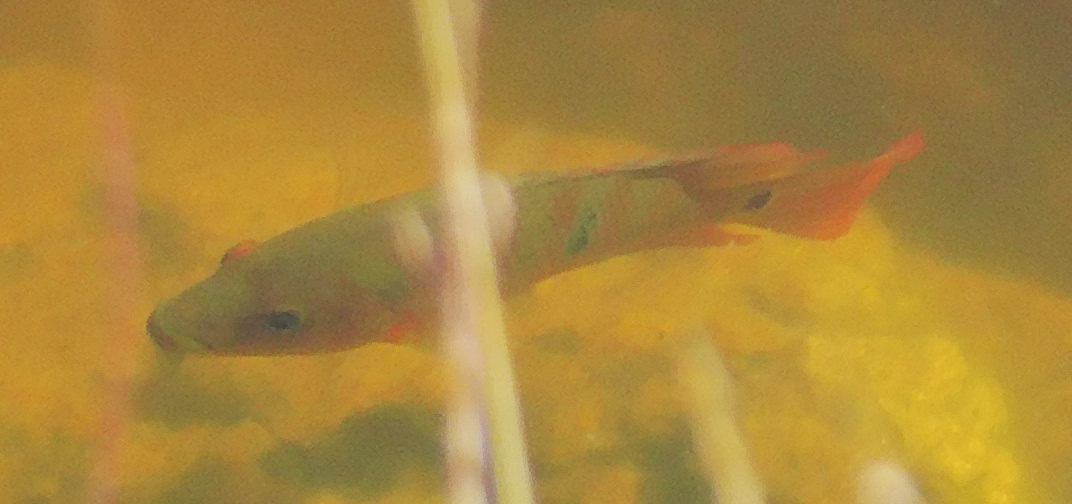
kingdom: Animalia
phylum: Chordata
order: Perciformes
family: Cichlidae
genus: Mayaheros
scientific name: Mayaheros urophthalmus
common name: Mayan cichlid
